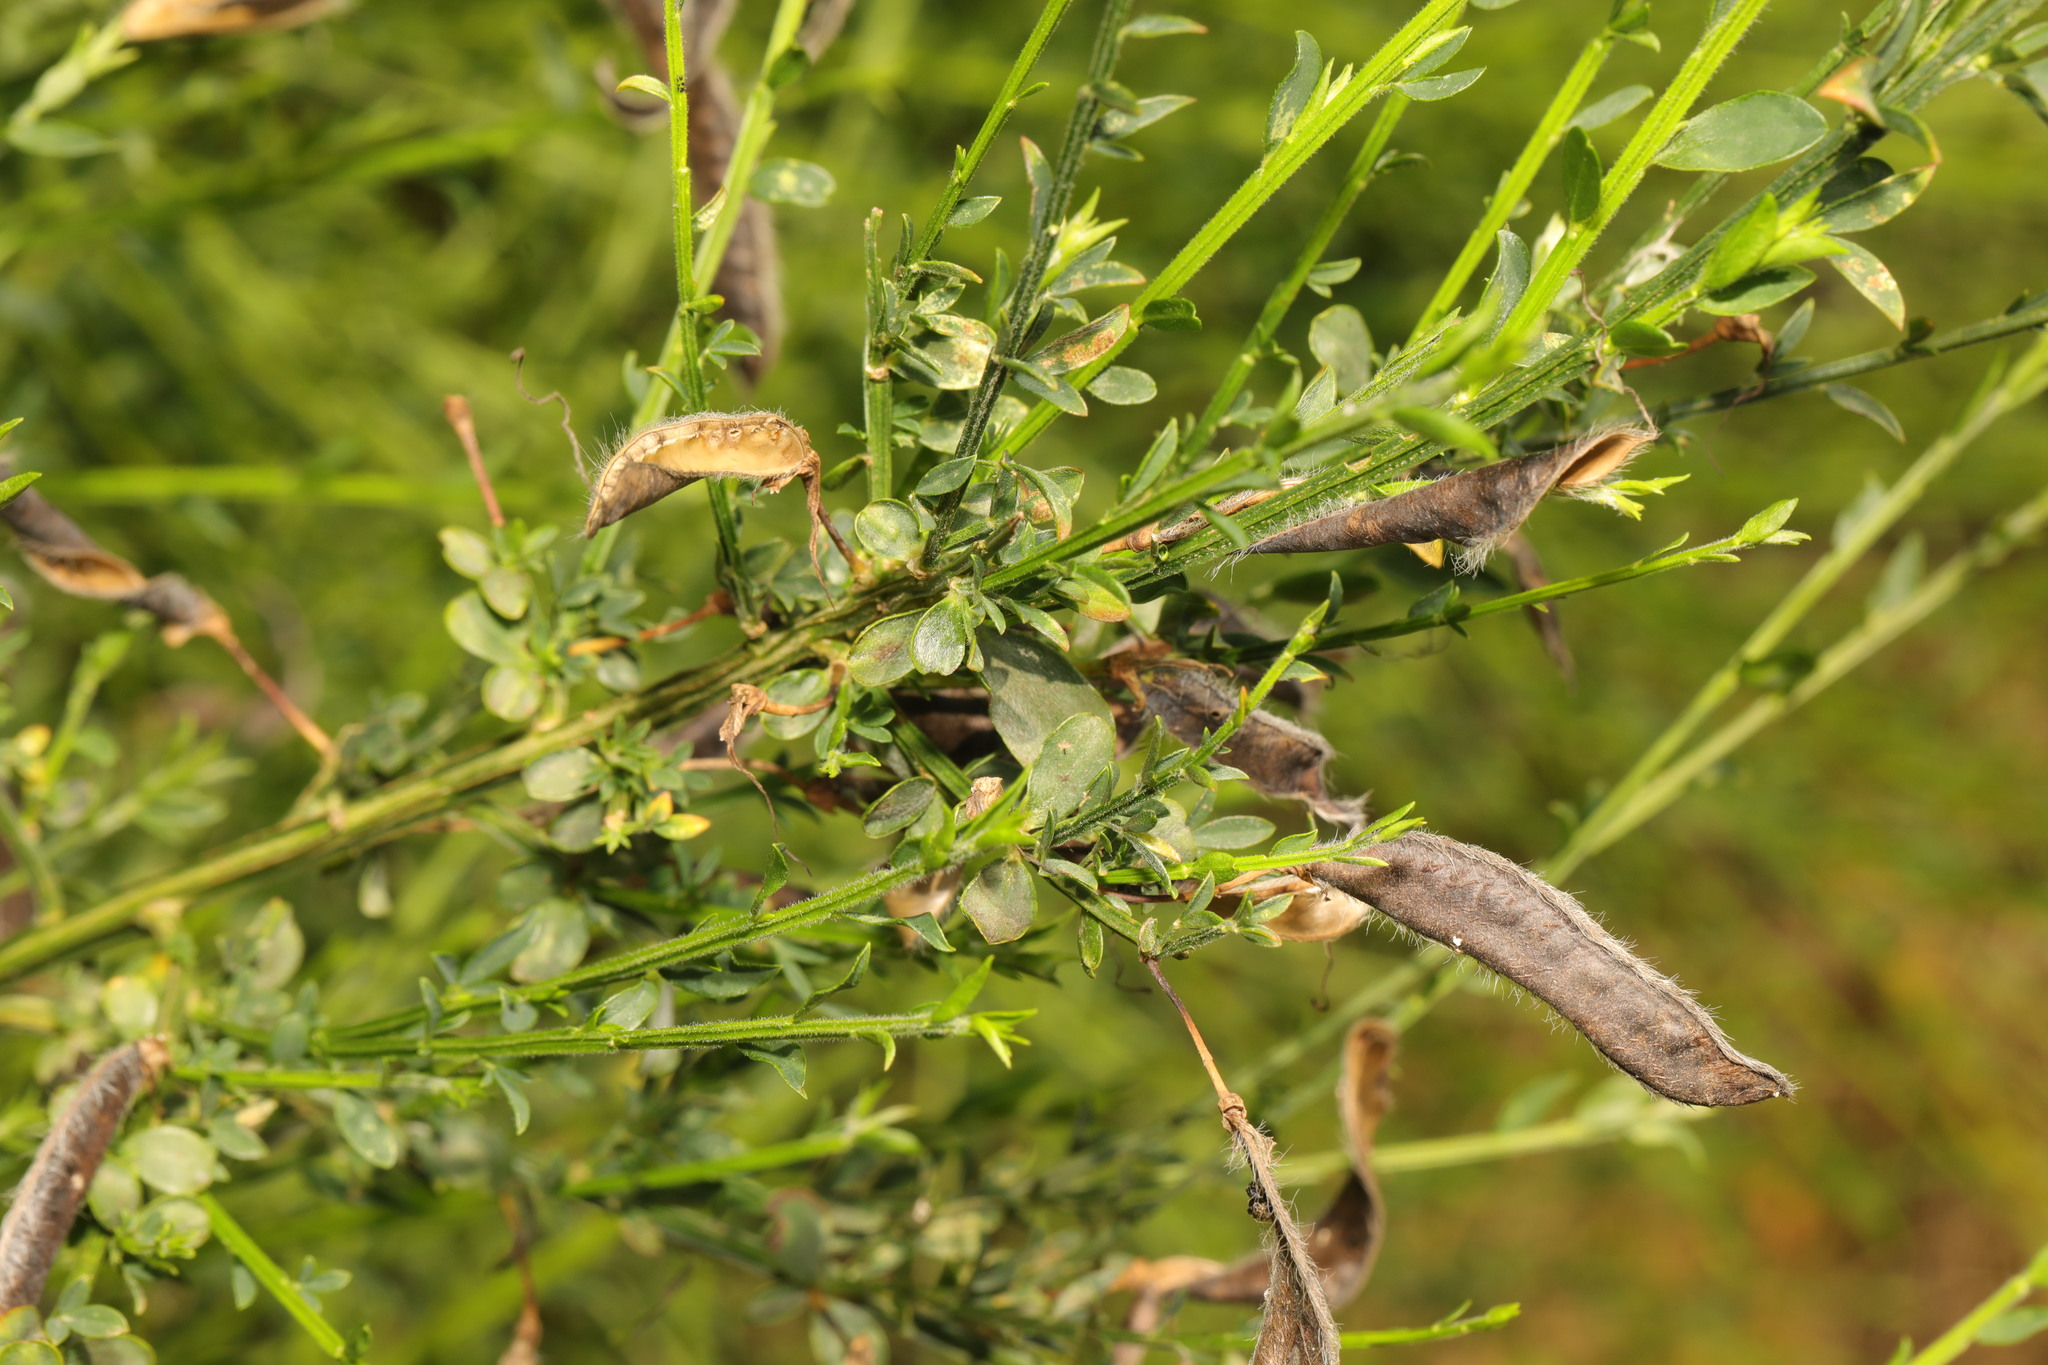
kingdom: Plantae
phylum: Tracheophyta
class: Magnoliopsida
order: Fabales
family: Fabaceae
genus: Cytisus
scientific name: Cytisus scoparius
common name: Scotch broom
